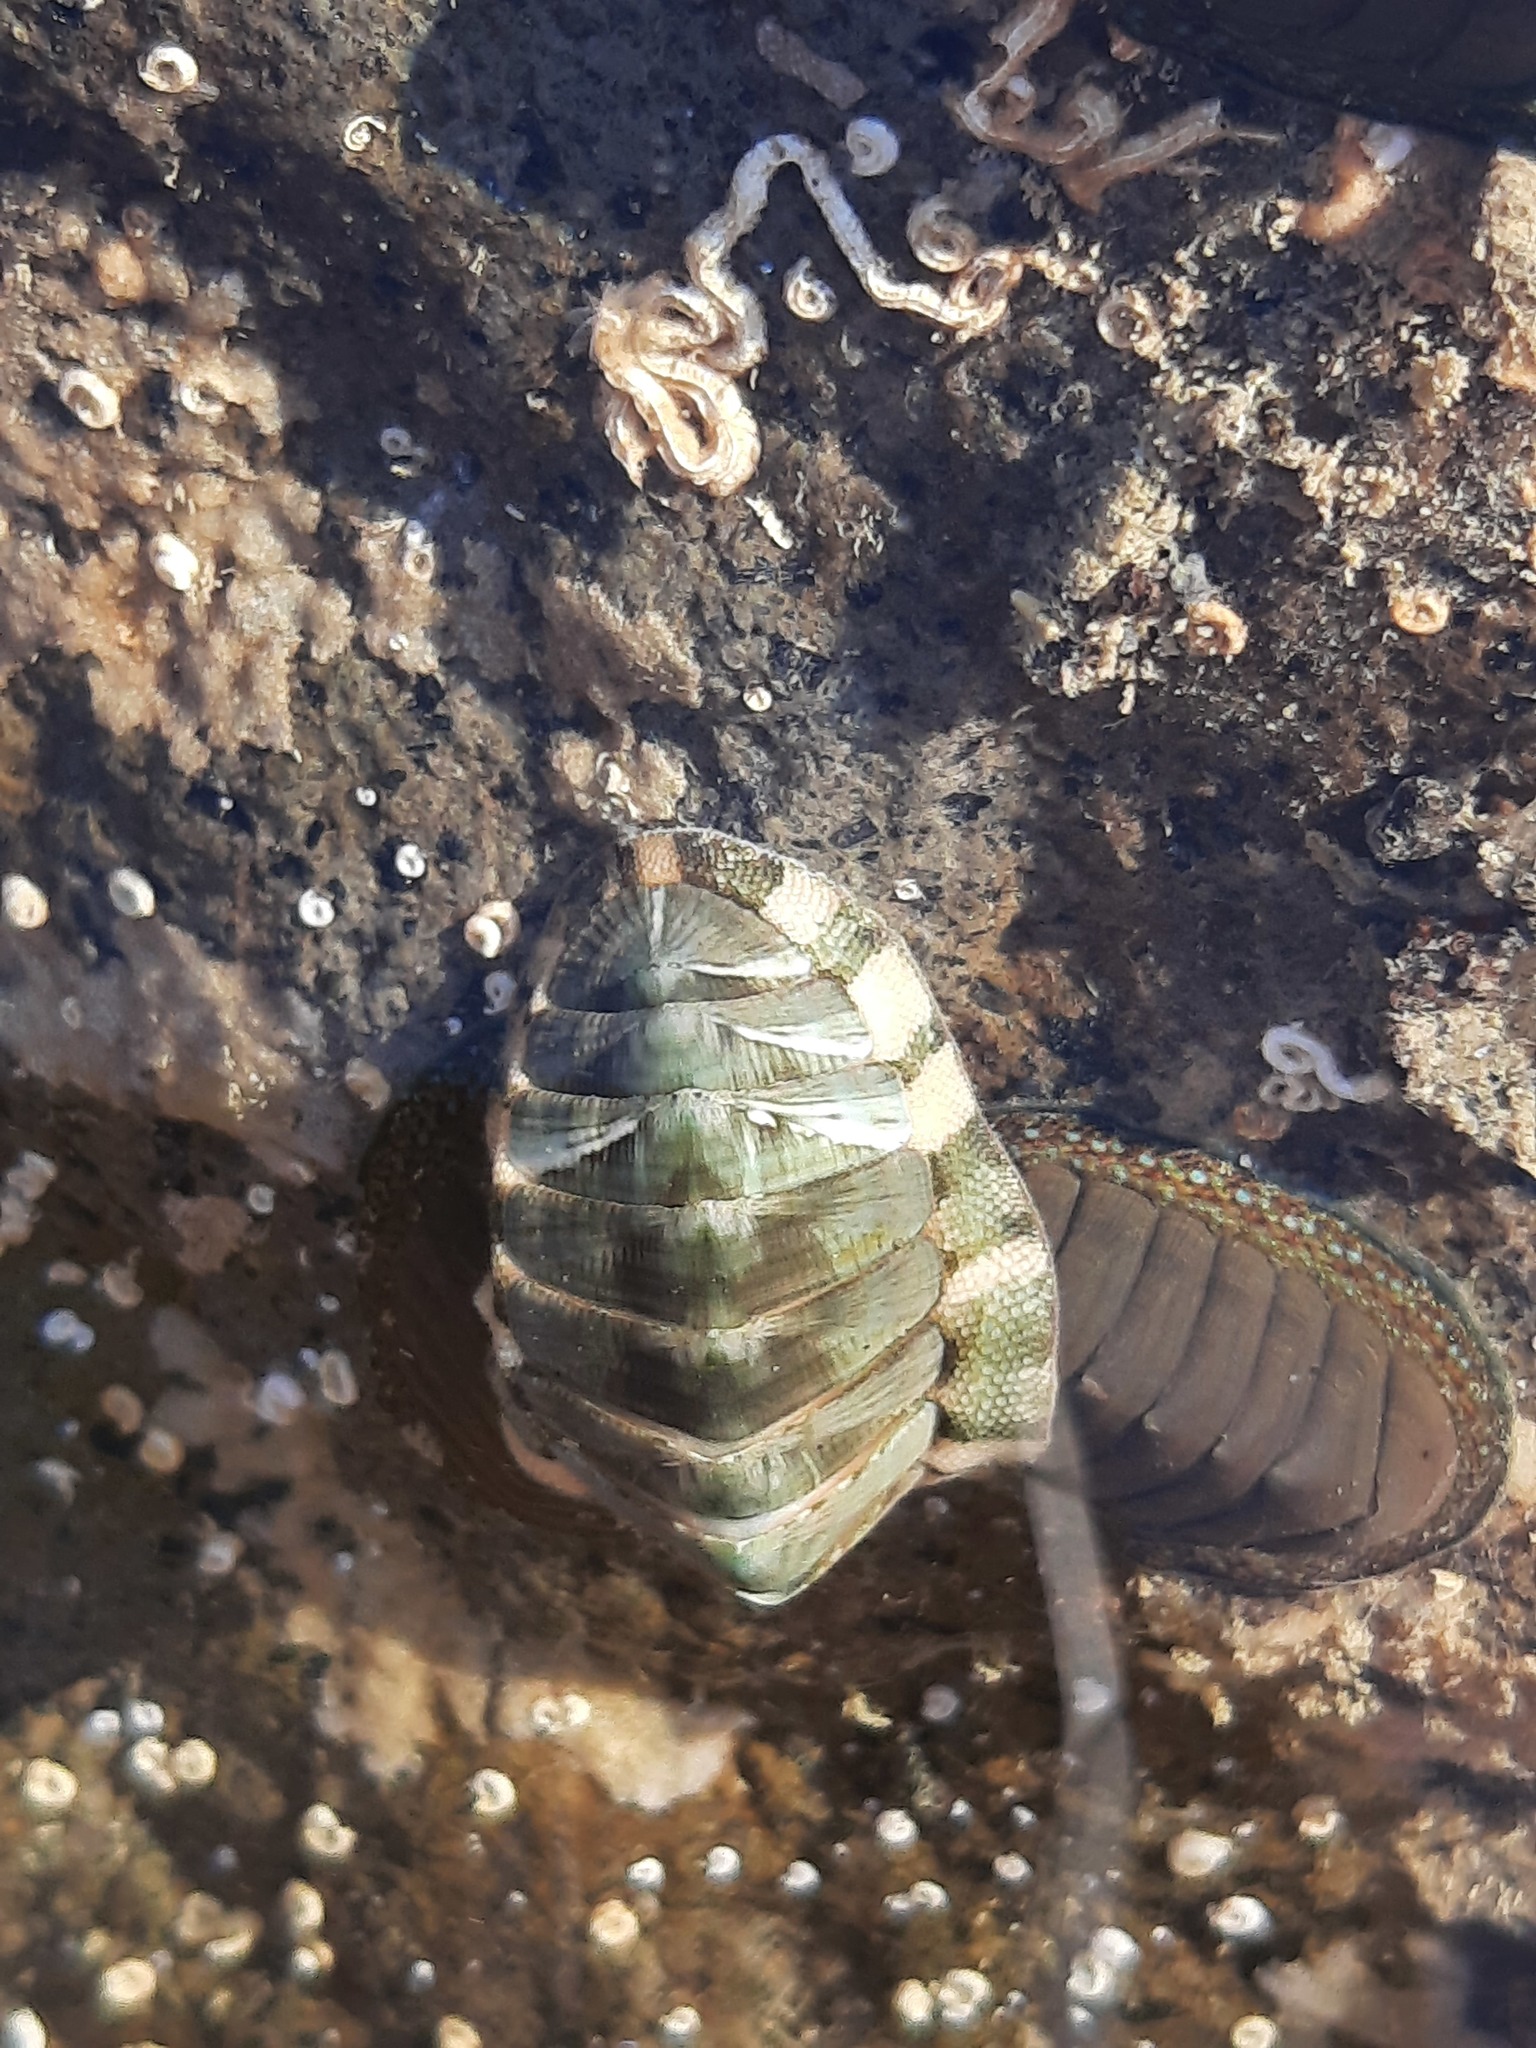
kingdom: Animalia
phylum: Mollusca
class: Polyplacophora
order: Chitonida
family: Chitonidae
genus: Rhyssoplax
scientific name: Rhyssoplax aerea
